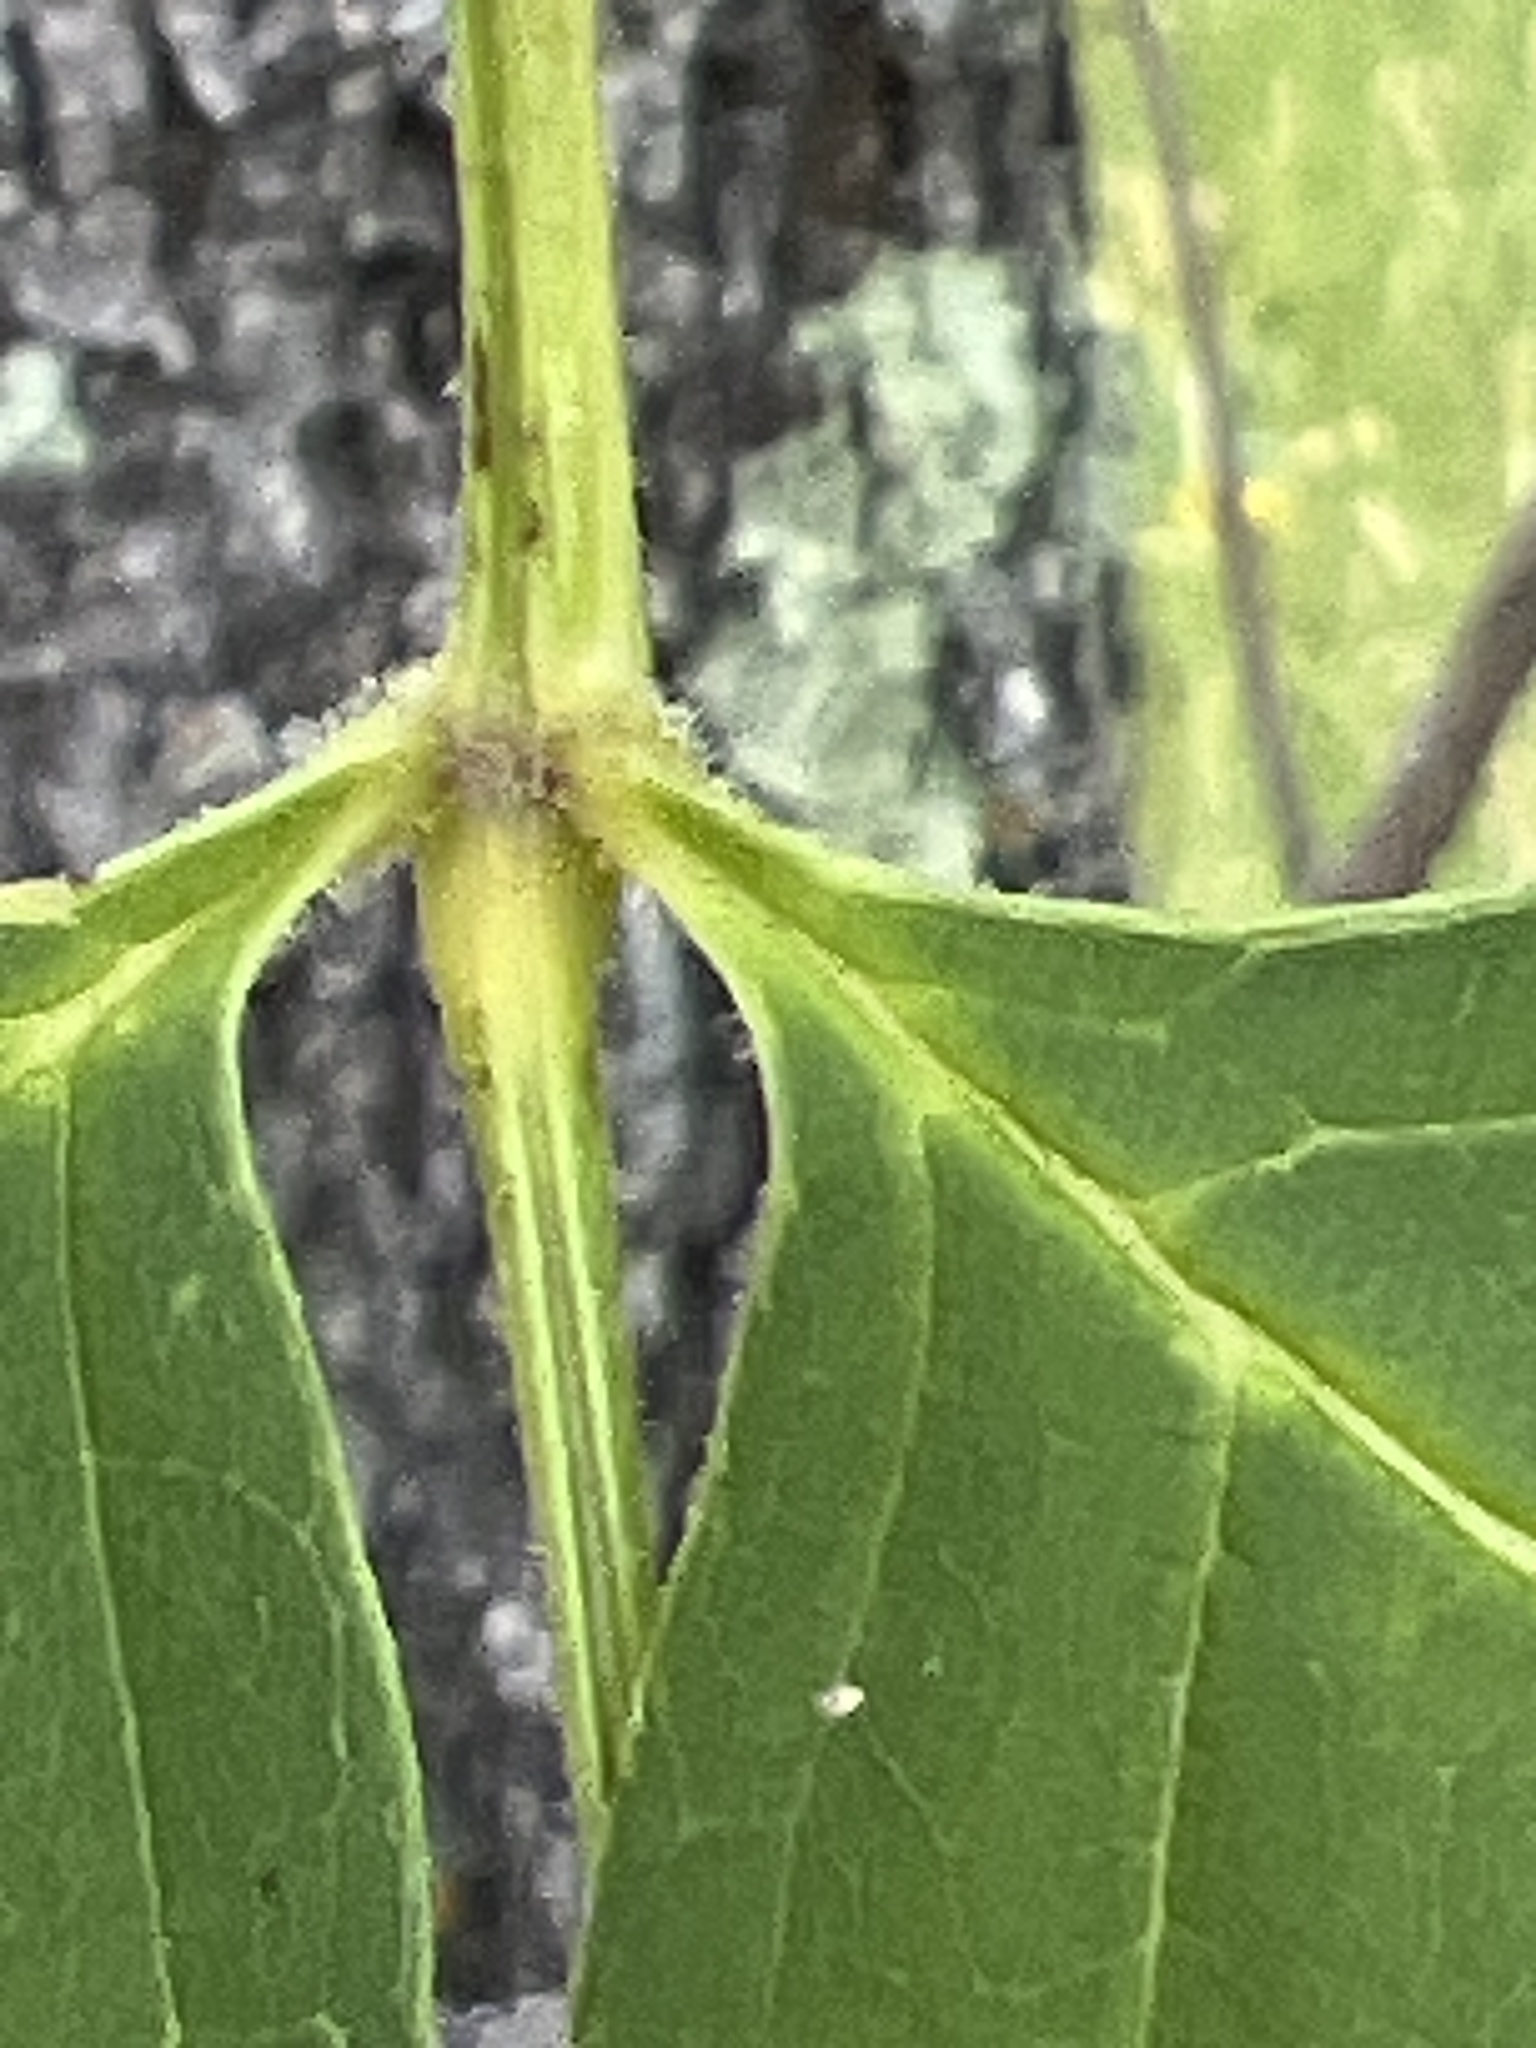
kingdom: Plantae
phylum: Tracheophyta
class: Magnoliopsida
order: Lamiales
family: Oleaceae
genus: Fraxinus
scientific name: Fraxinus pennsylvanica
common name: Green ash
